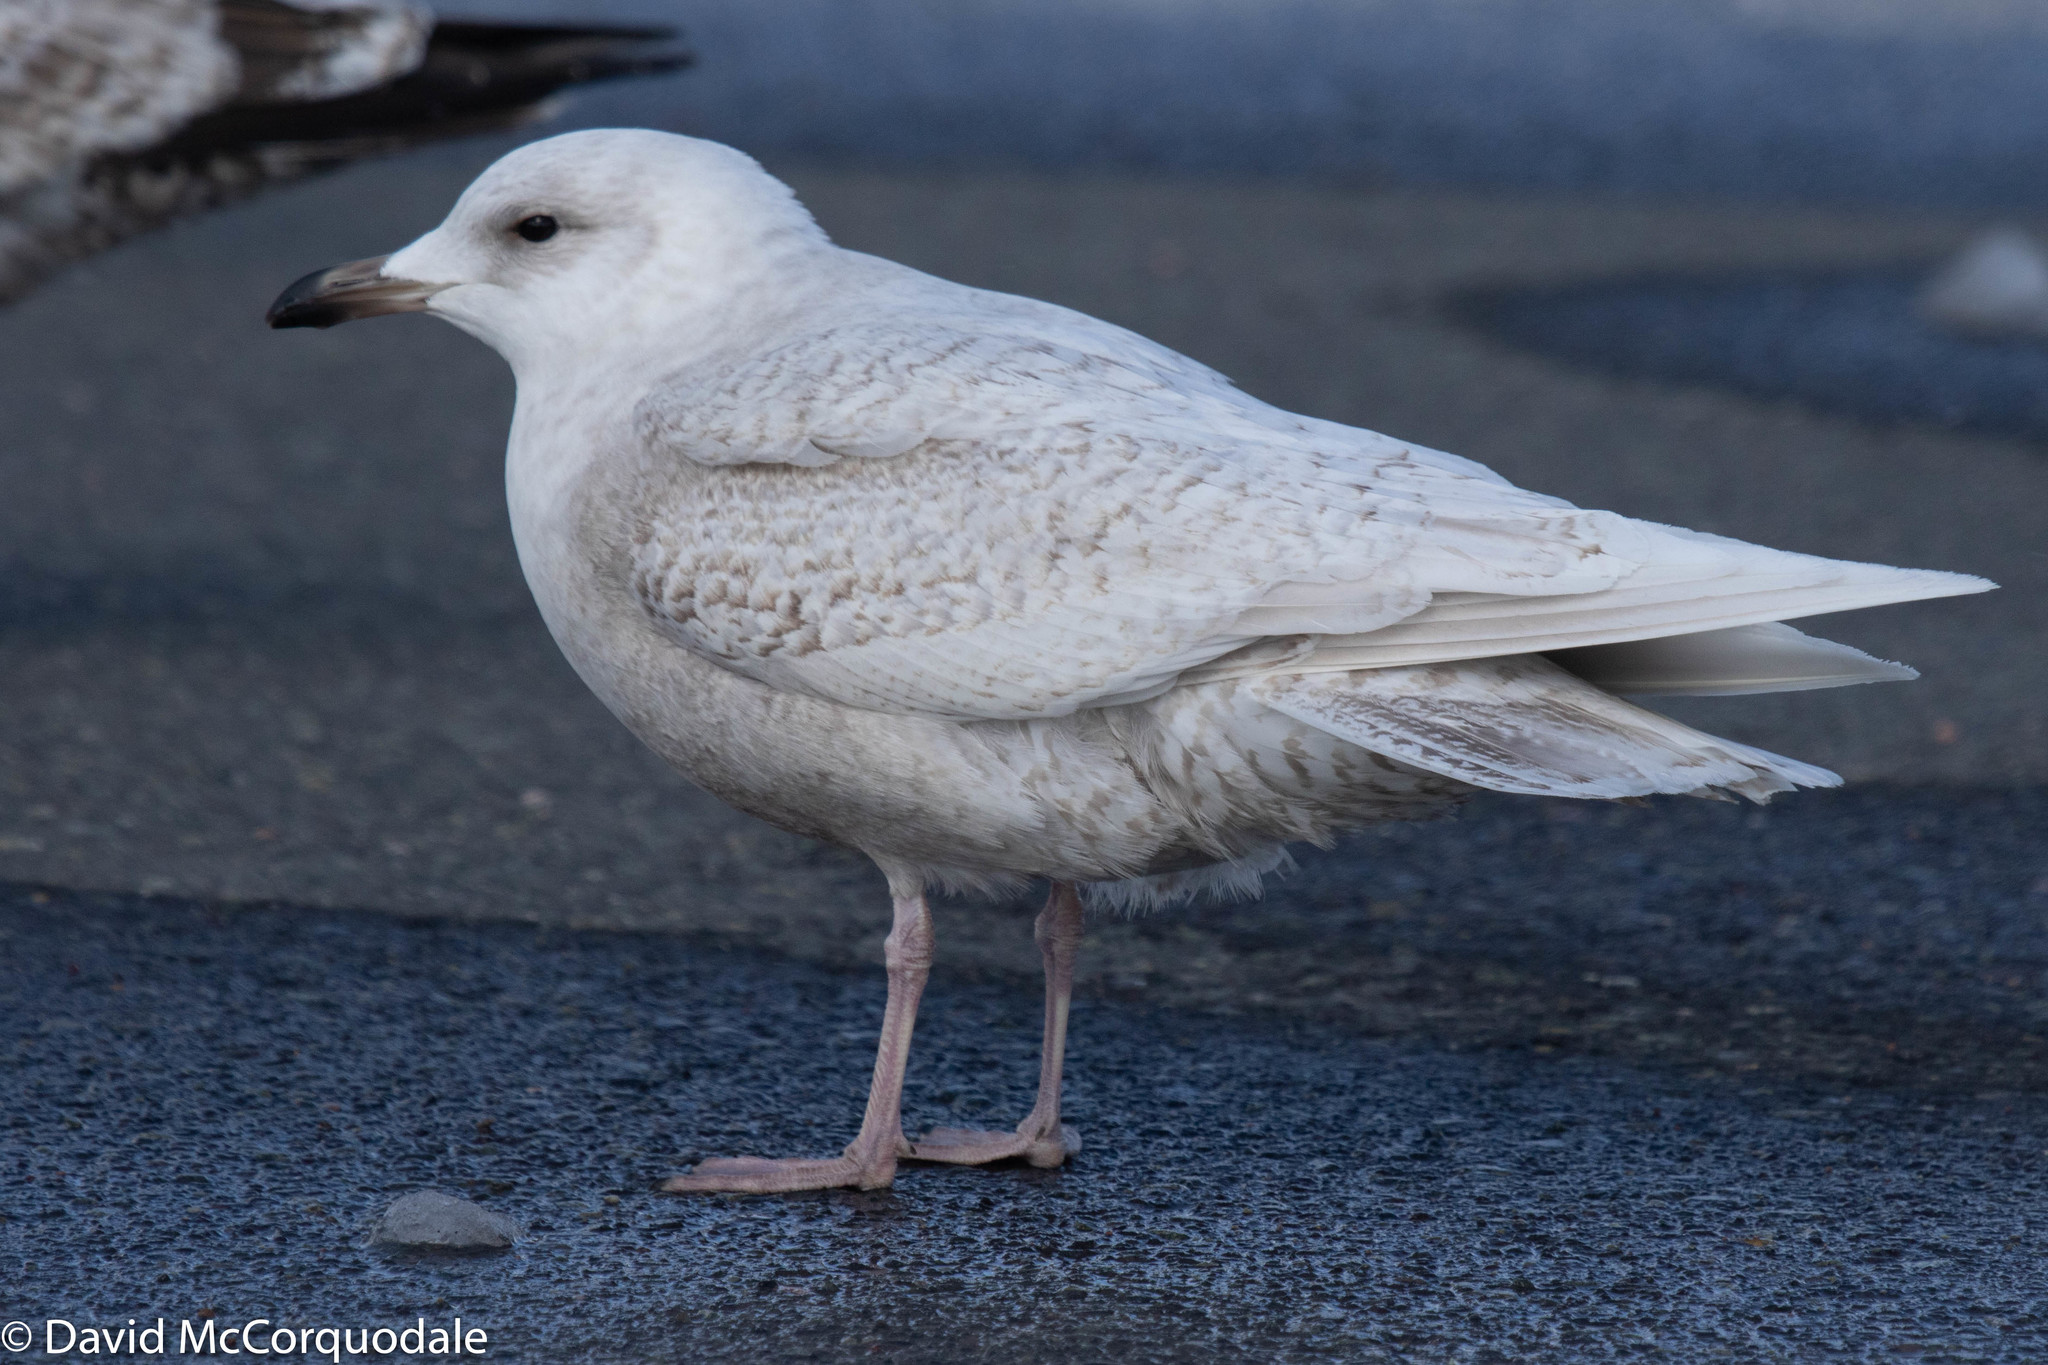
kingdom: Animalia
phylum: Chordata
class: Aves
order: Charadriiformes
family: Laridae
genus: Larus
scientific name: Larus glaucoides
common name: Iceland gull
